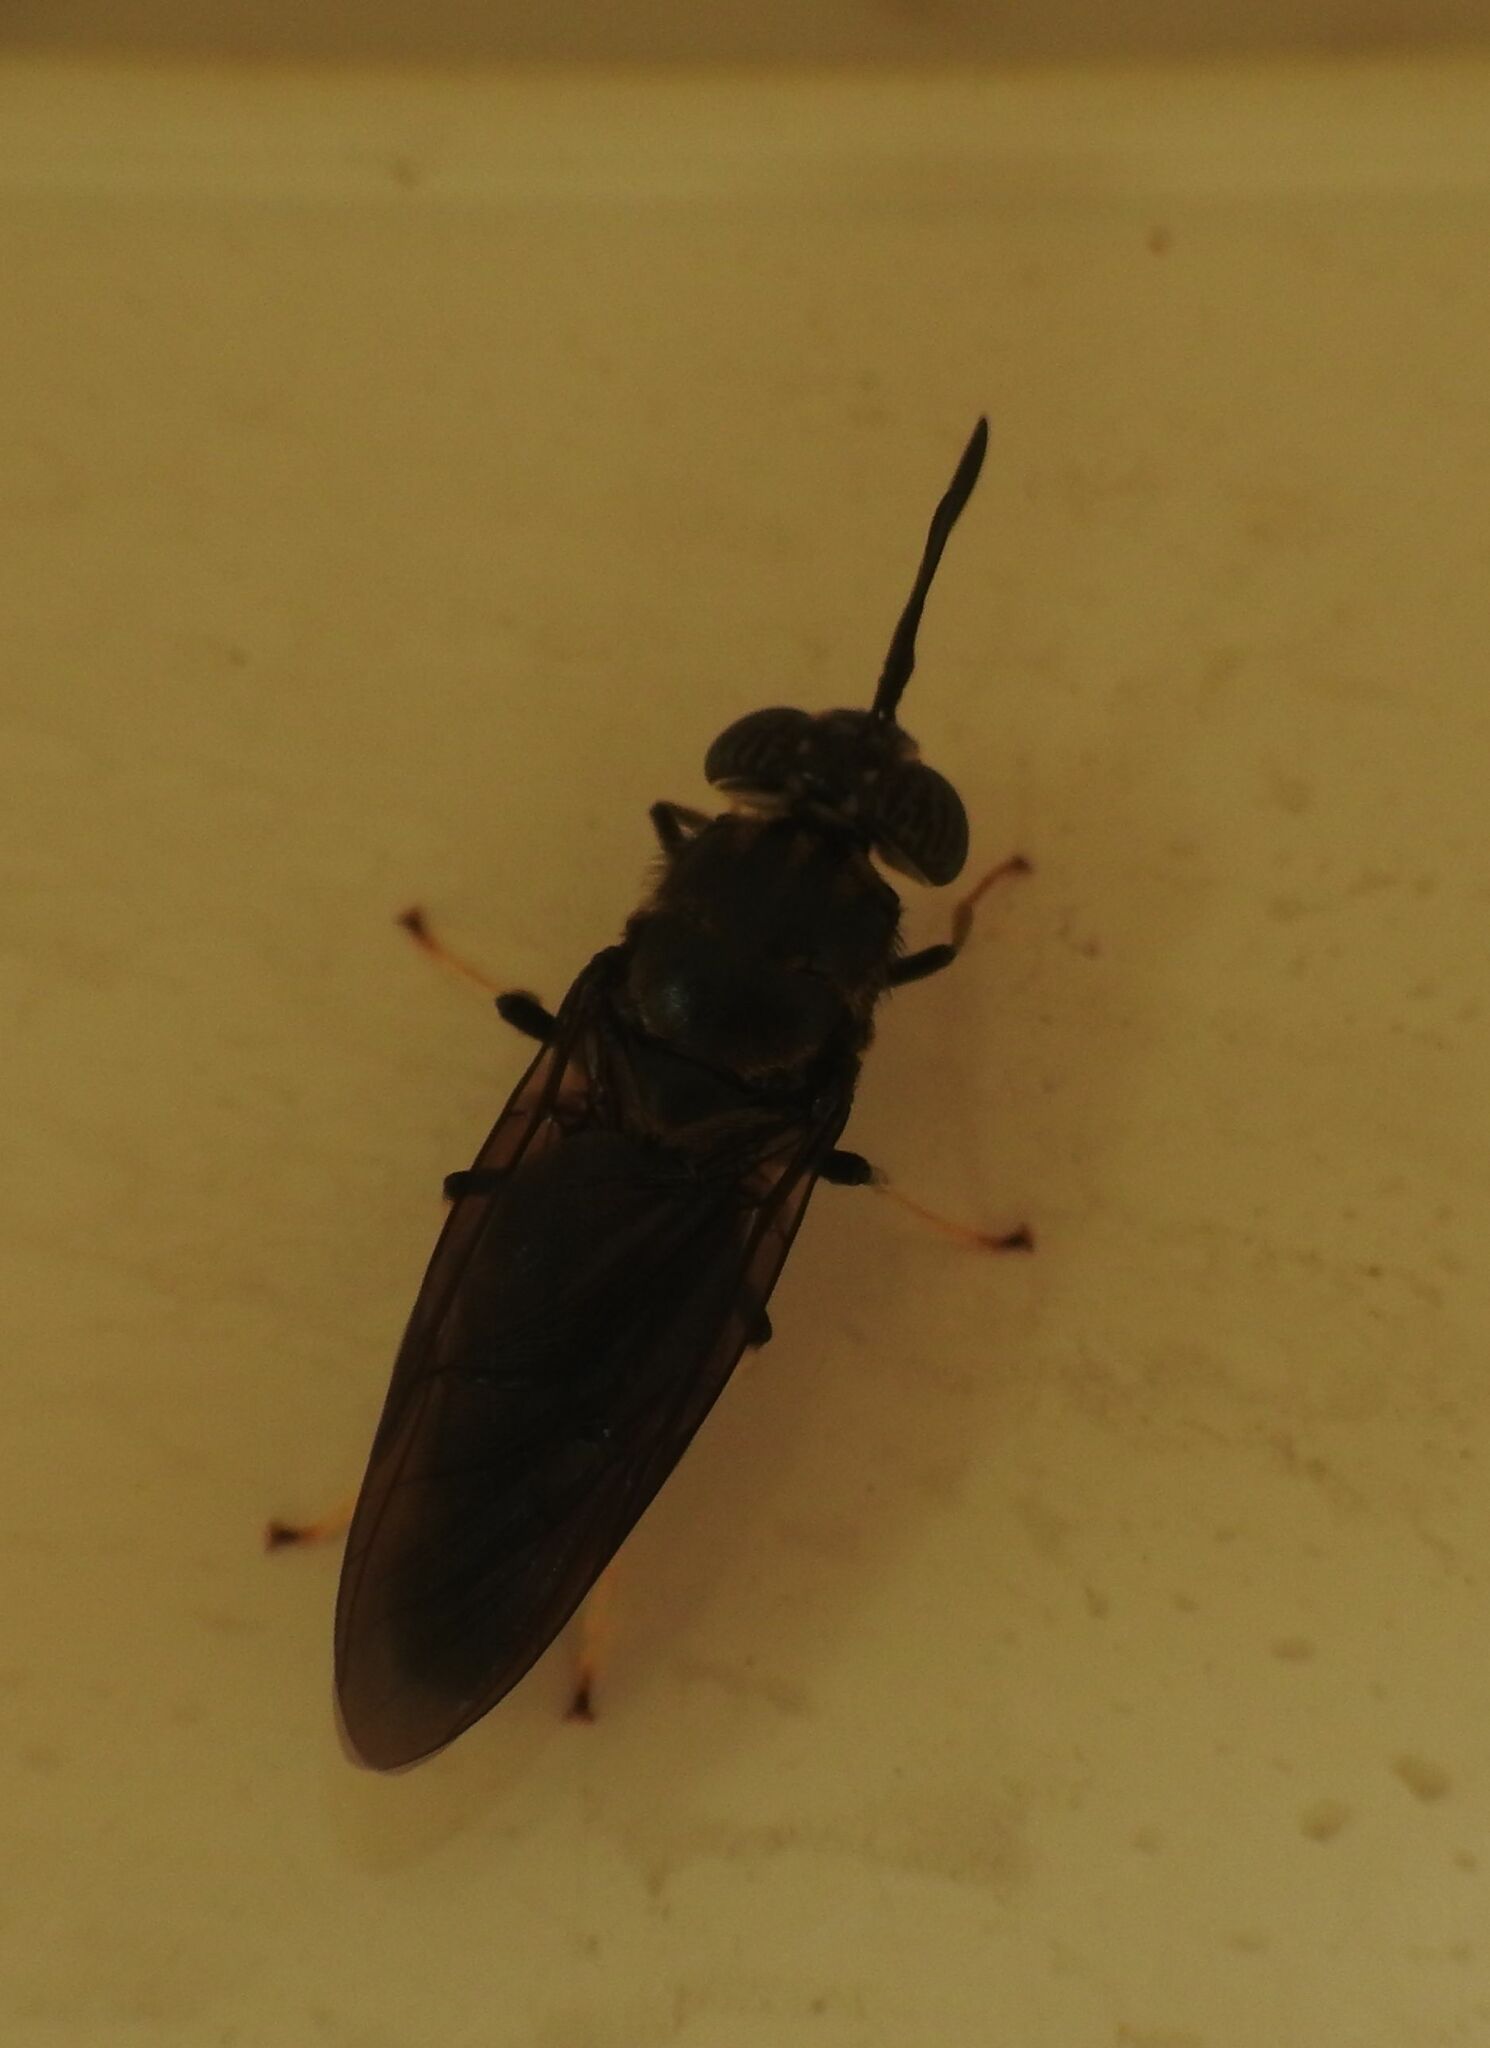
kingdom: Animalia
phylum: Arthropoda
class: Insecta
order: Diptera
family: Stratiomyidae
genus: Hermetia
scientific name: Hermetia illucens
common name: Black soldier fly
